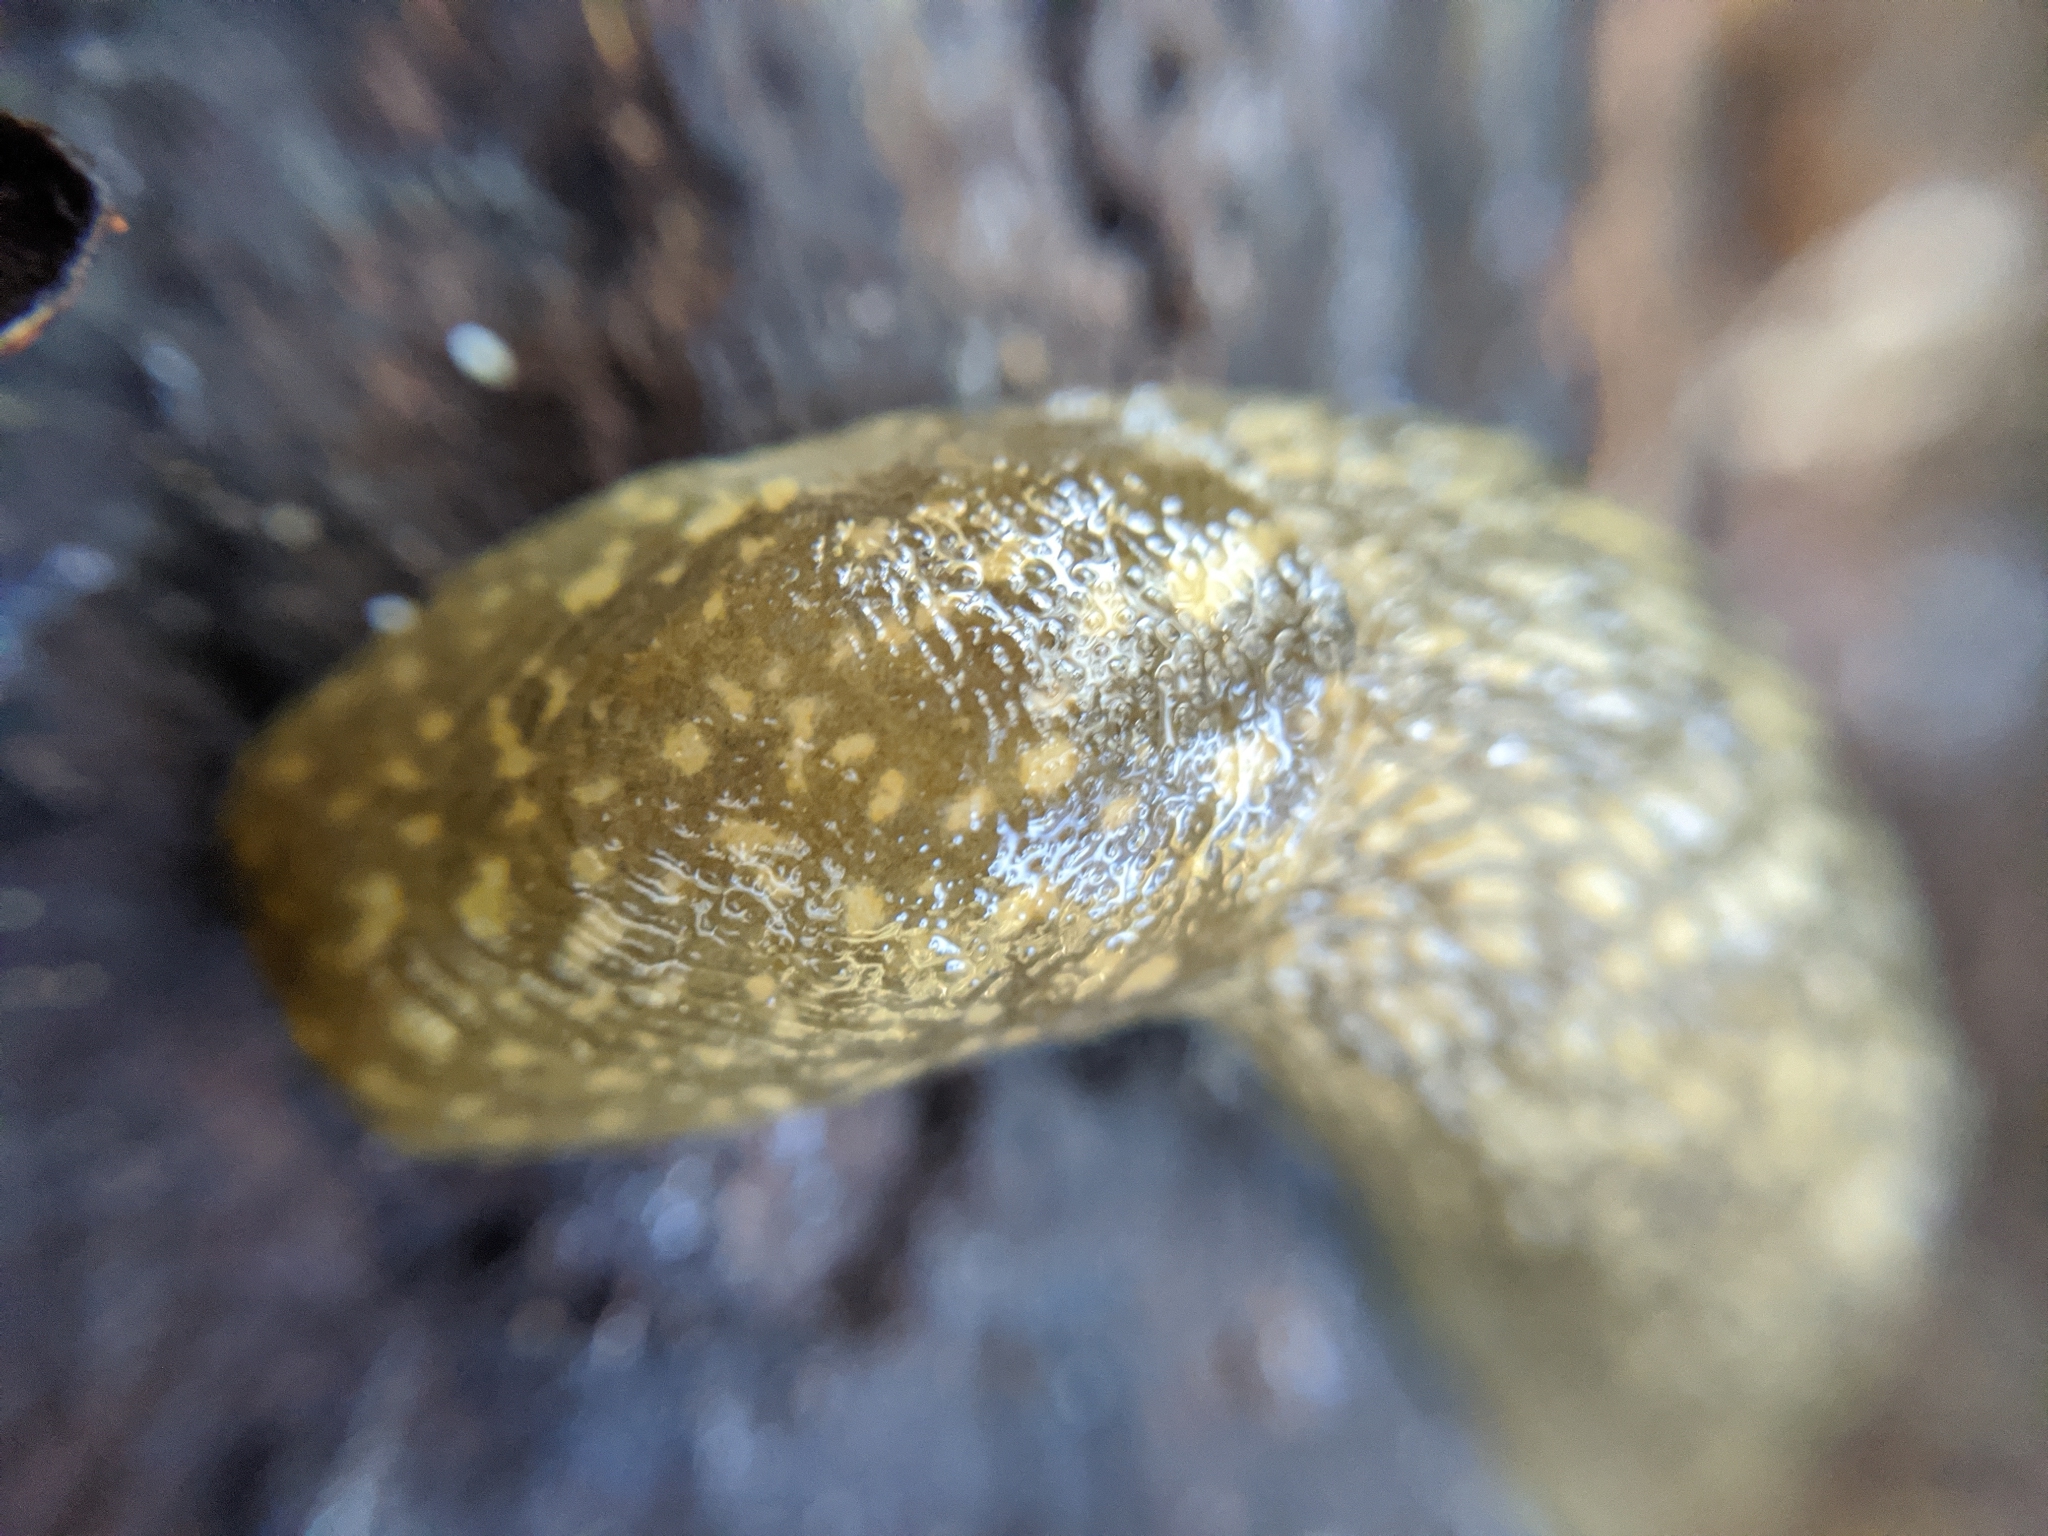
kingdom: Animalia
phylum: Mollusca
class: Gastropoda
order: Stylommatophora
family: Limacidae
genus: Limacus
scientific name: Limacus flavus
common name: Yellow gardenslug
